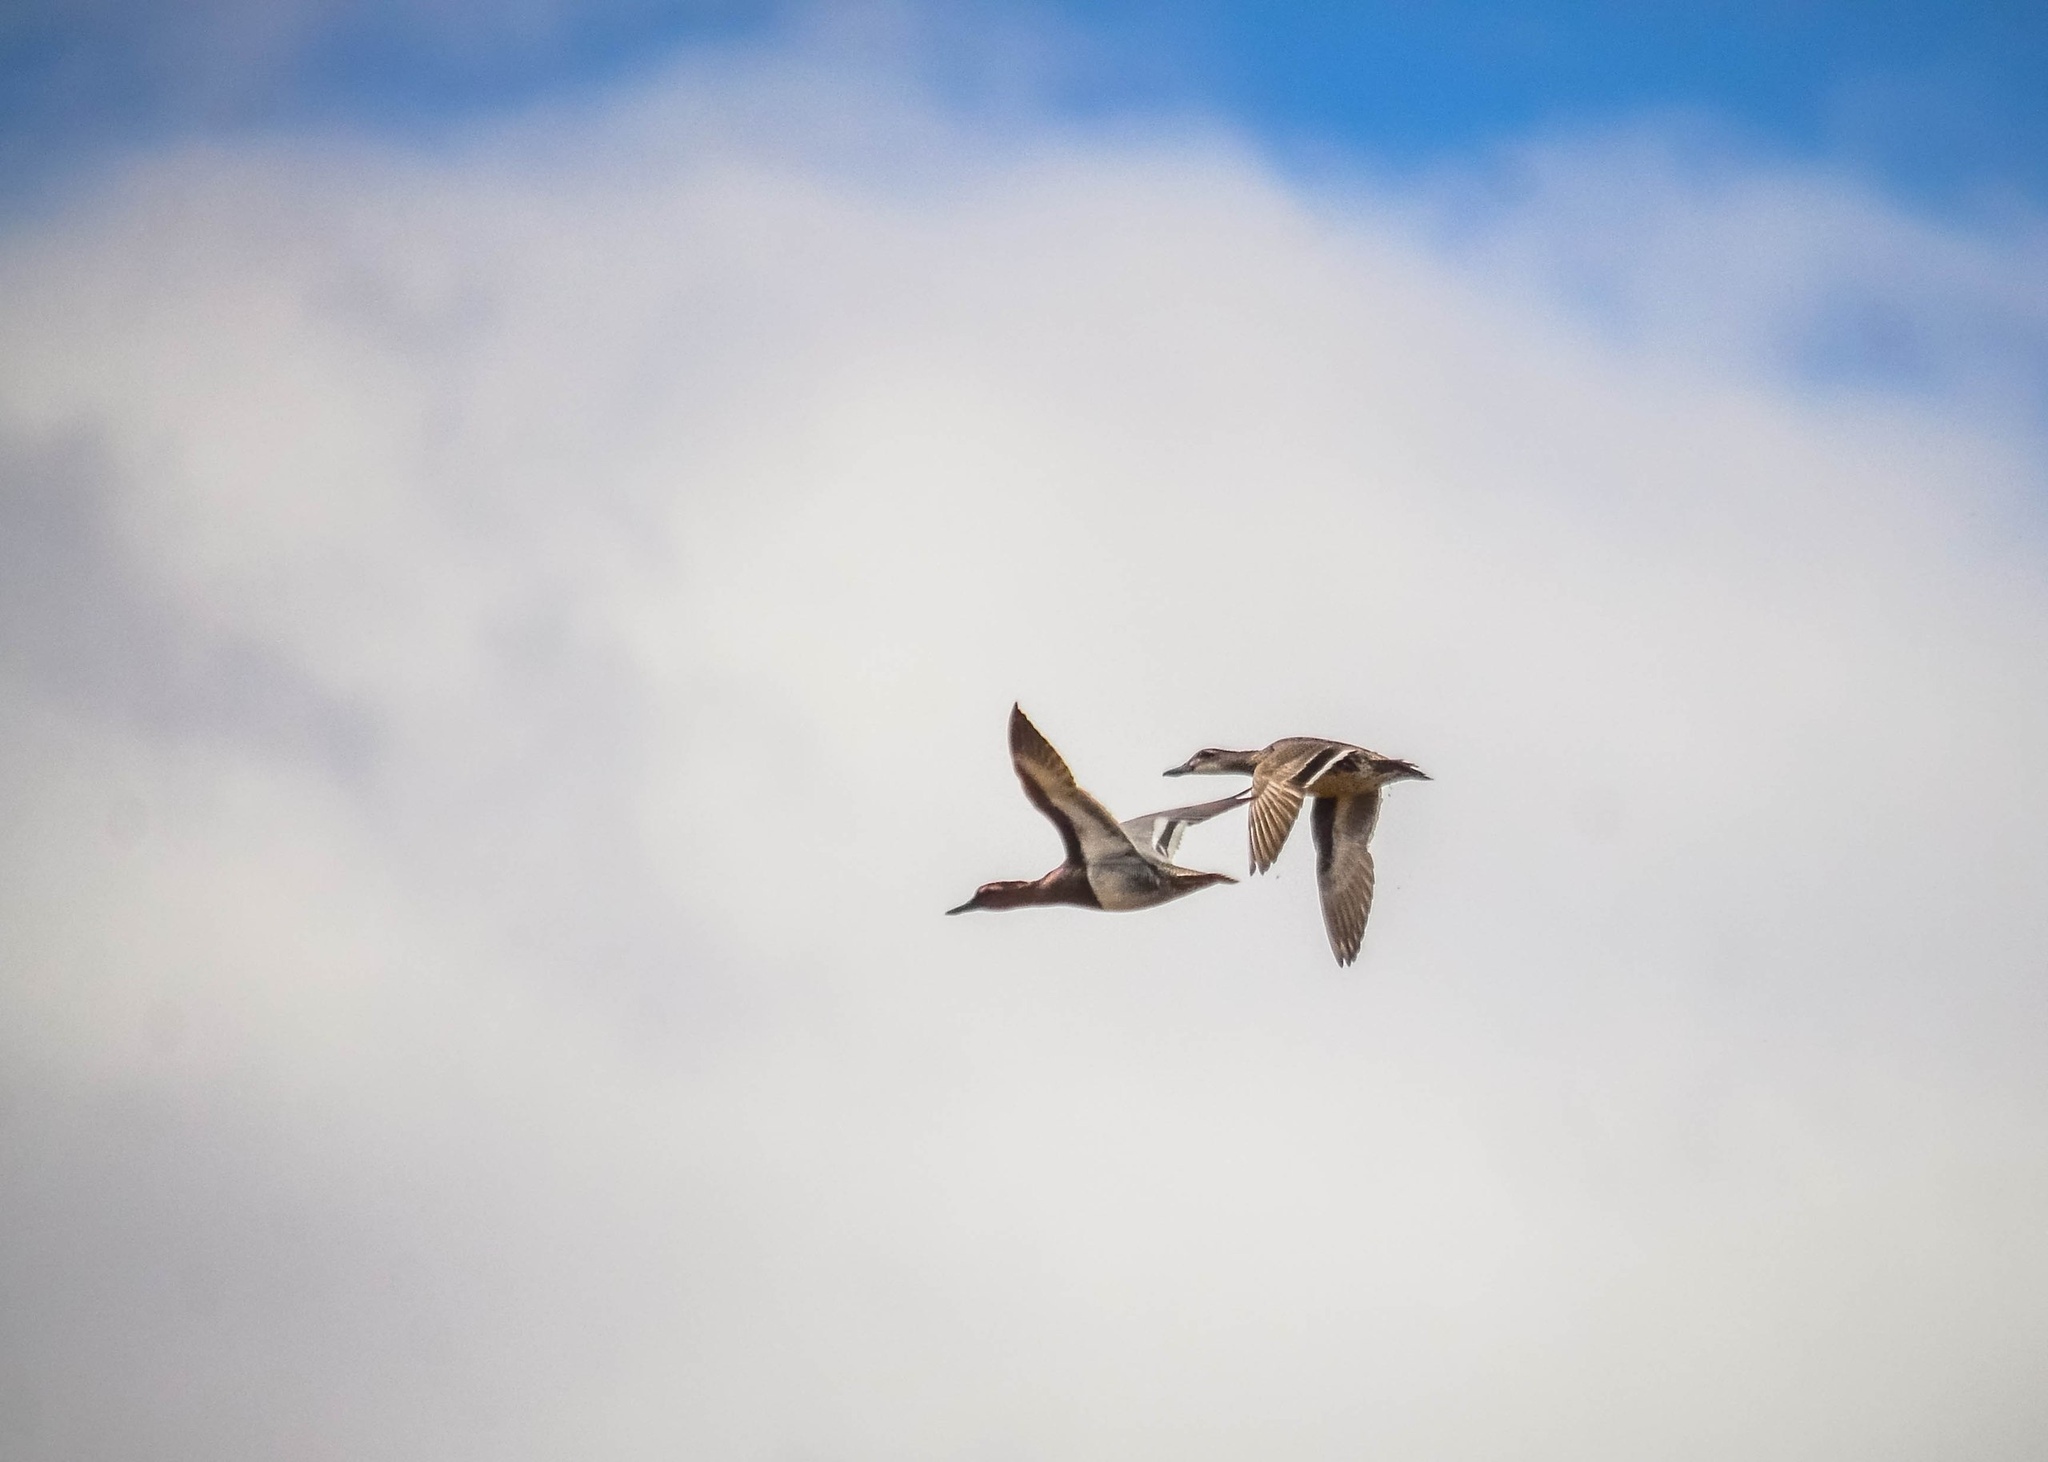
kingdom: Animalia
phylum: Chordata
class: Aves
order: Anseriformes
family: Anatidae
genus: Spatula
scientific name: Spatula querquedula
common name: Garganey
